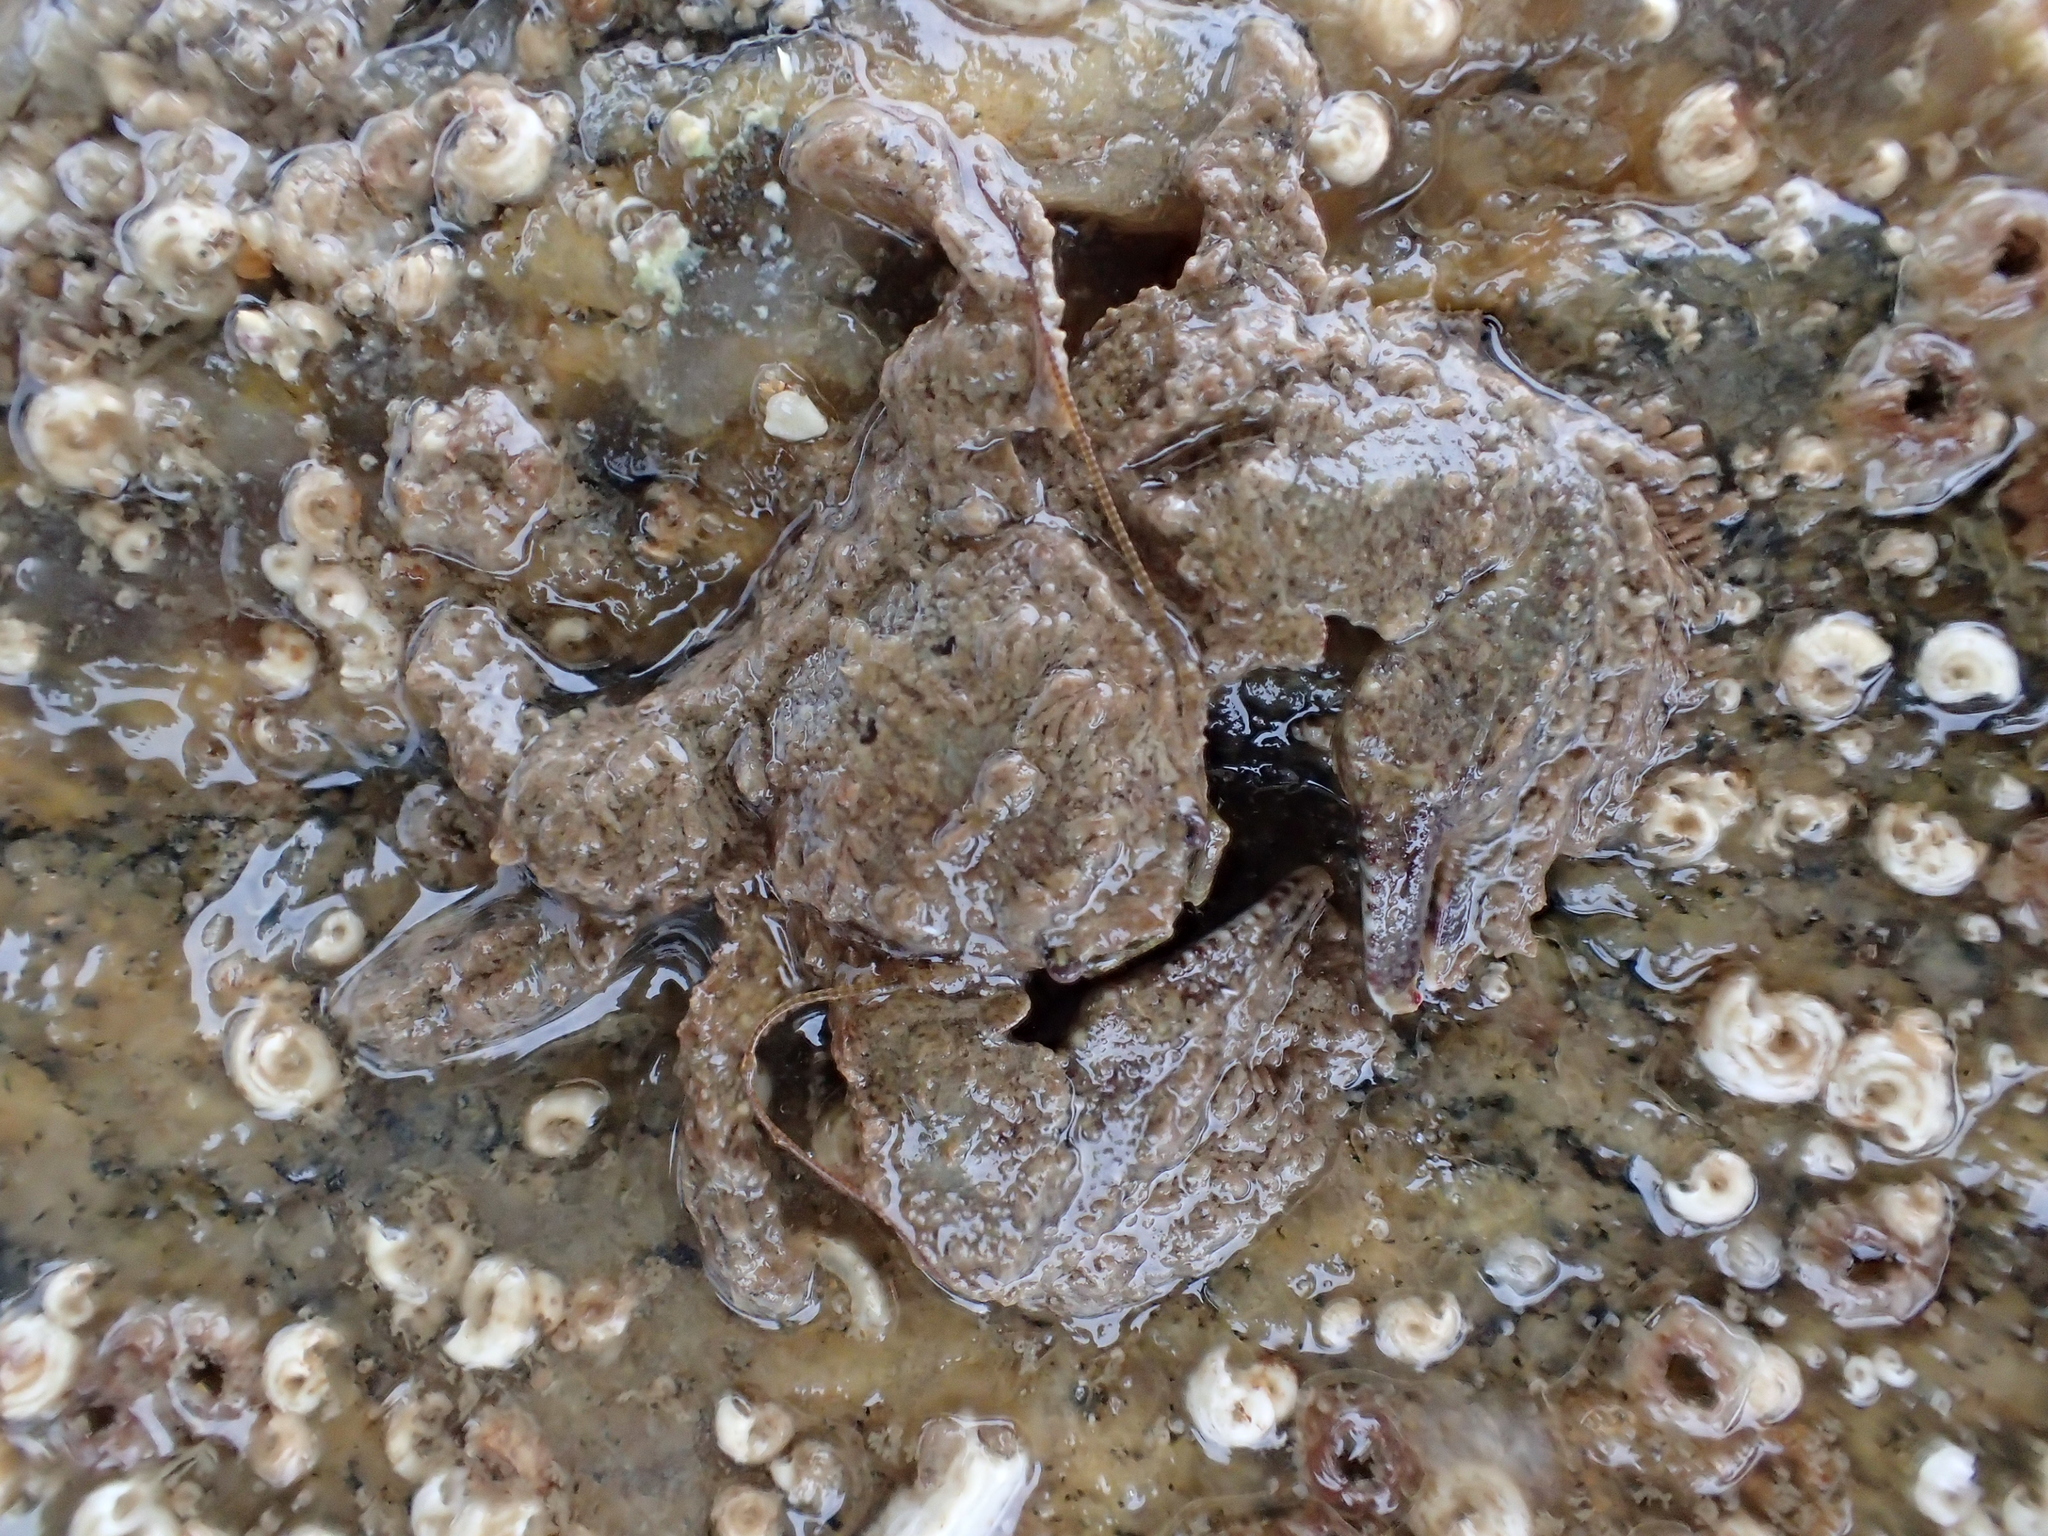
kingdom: Animalia
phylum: Arthropoda
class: Malacostraca
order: Decapoda
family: Porcellanidae
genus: Porcellana
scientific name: Porcellana platycheles
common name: Porcelain crab
